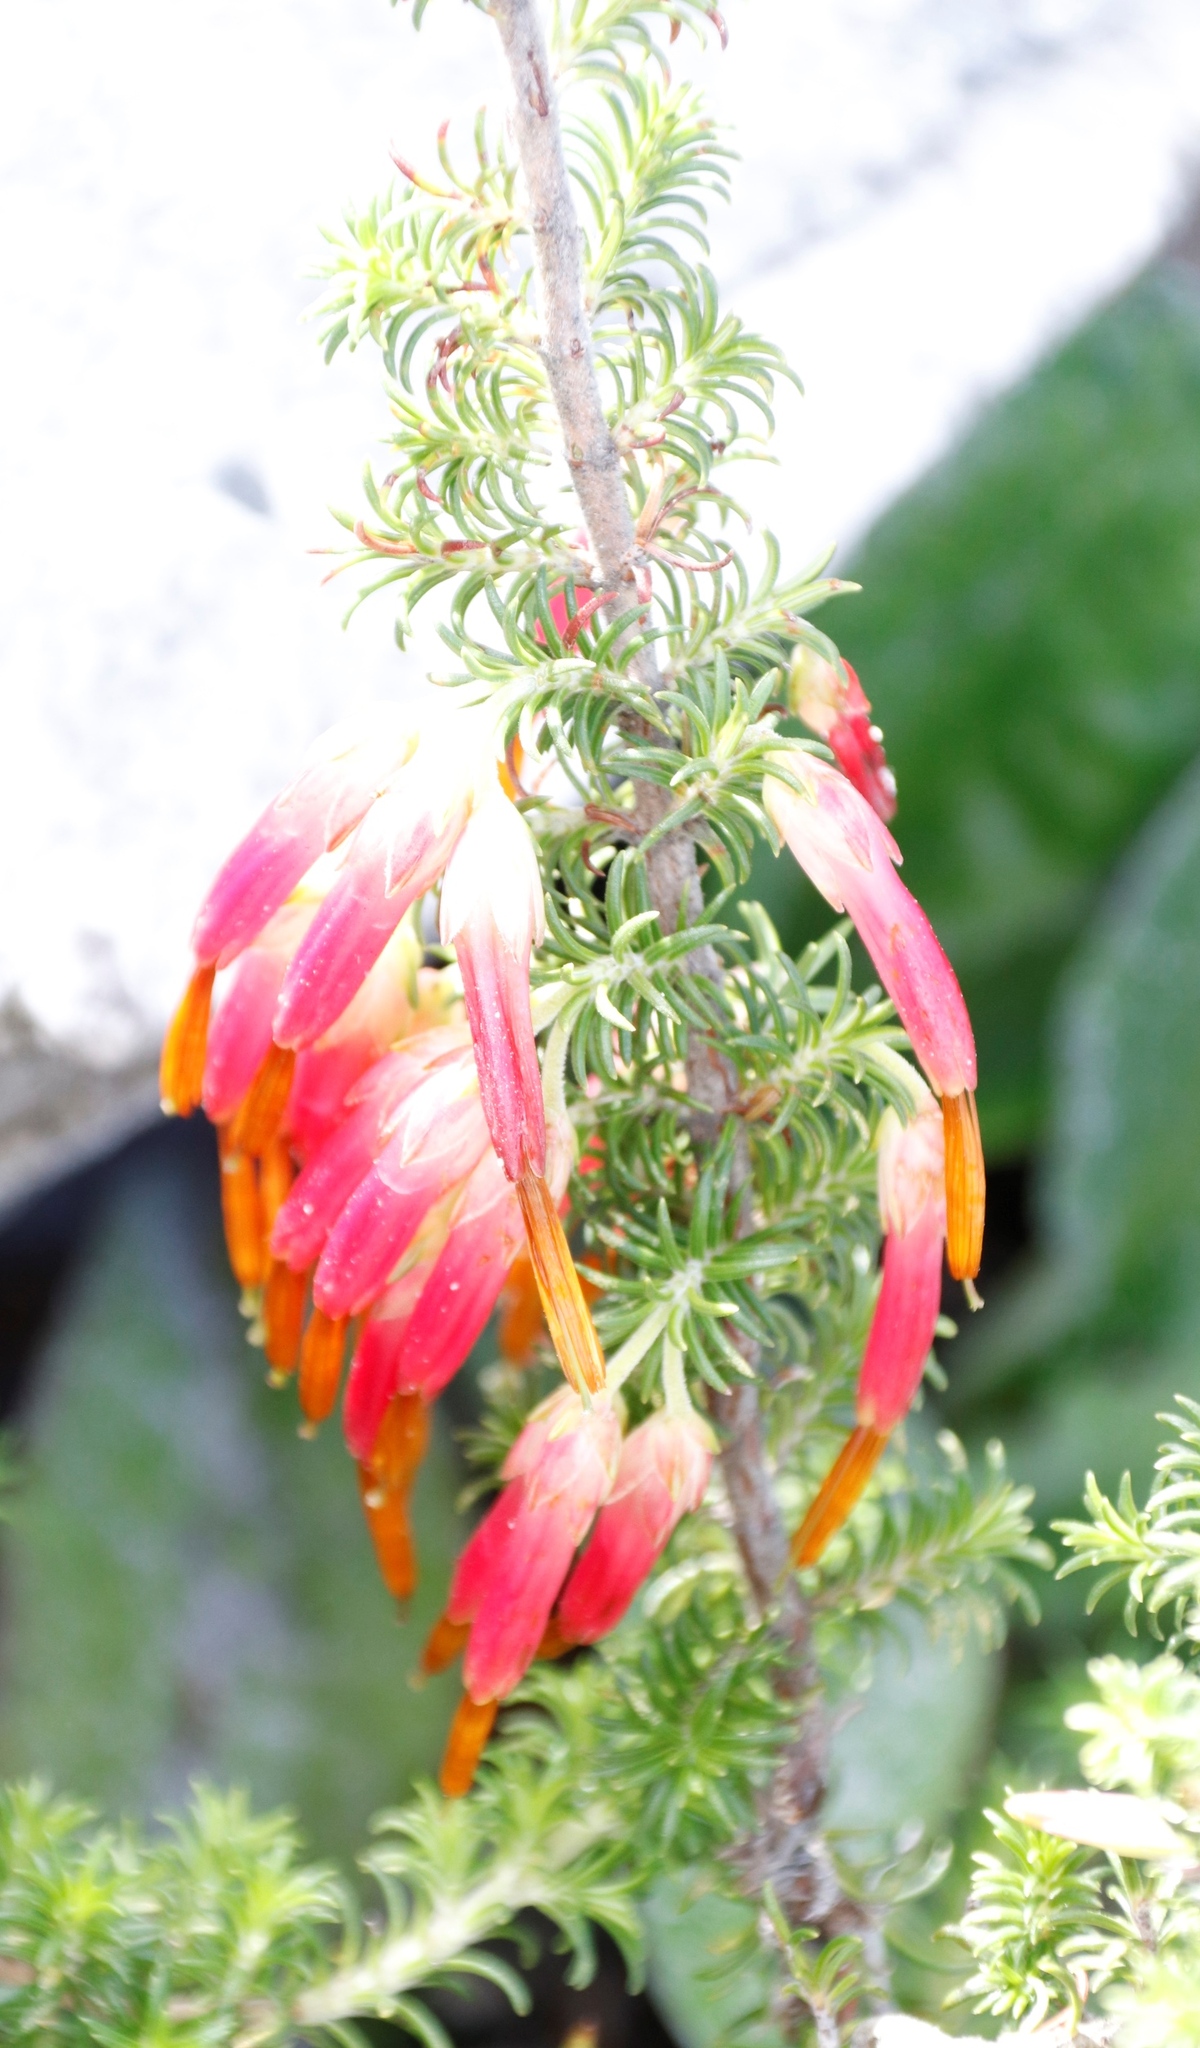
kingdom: Plantae
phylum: Tracheophyta
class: Magnoliopsida
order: Ericales
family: Ericaceae
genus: Erica
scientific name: Erica coccinea
